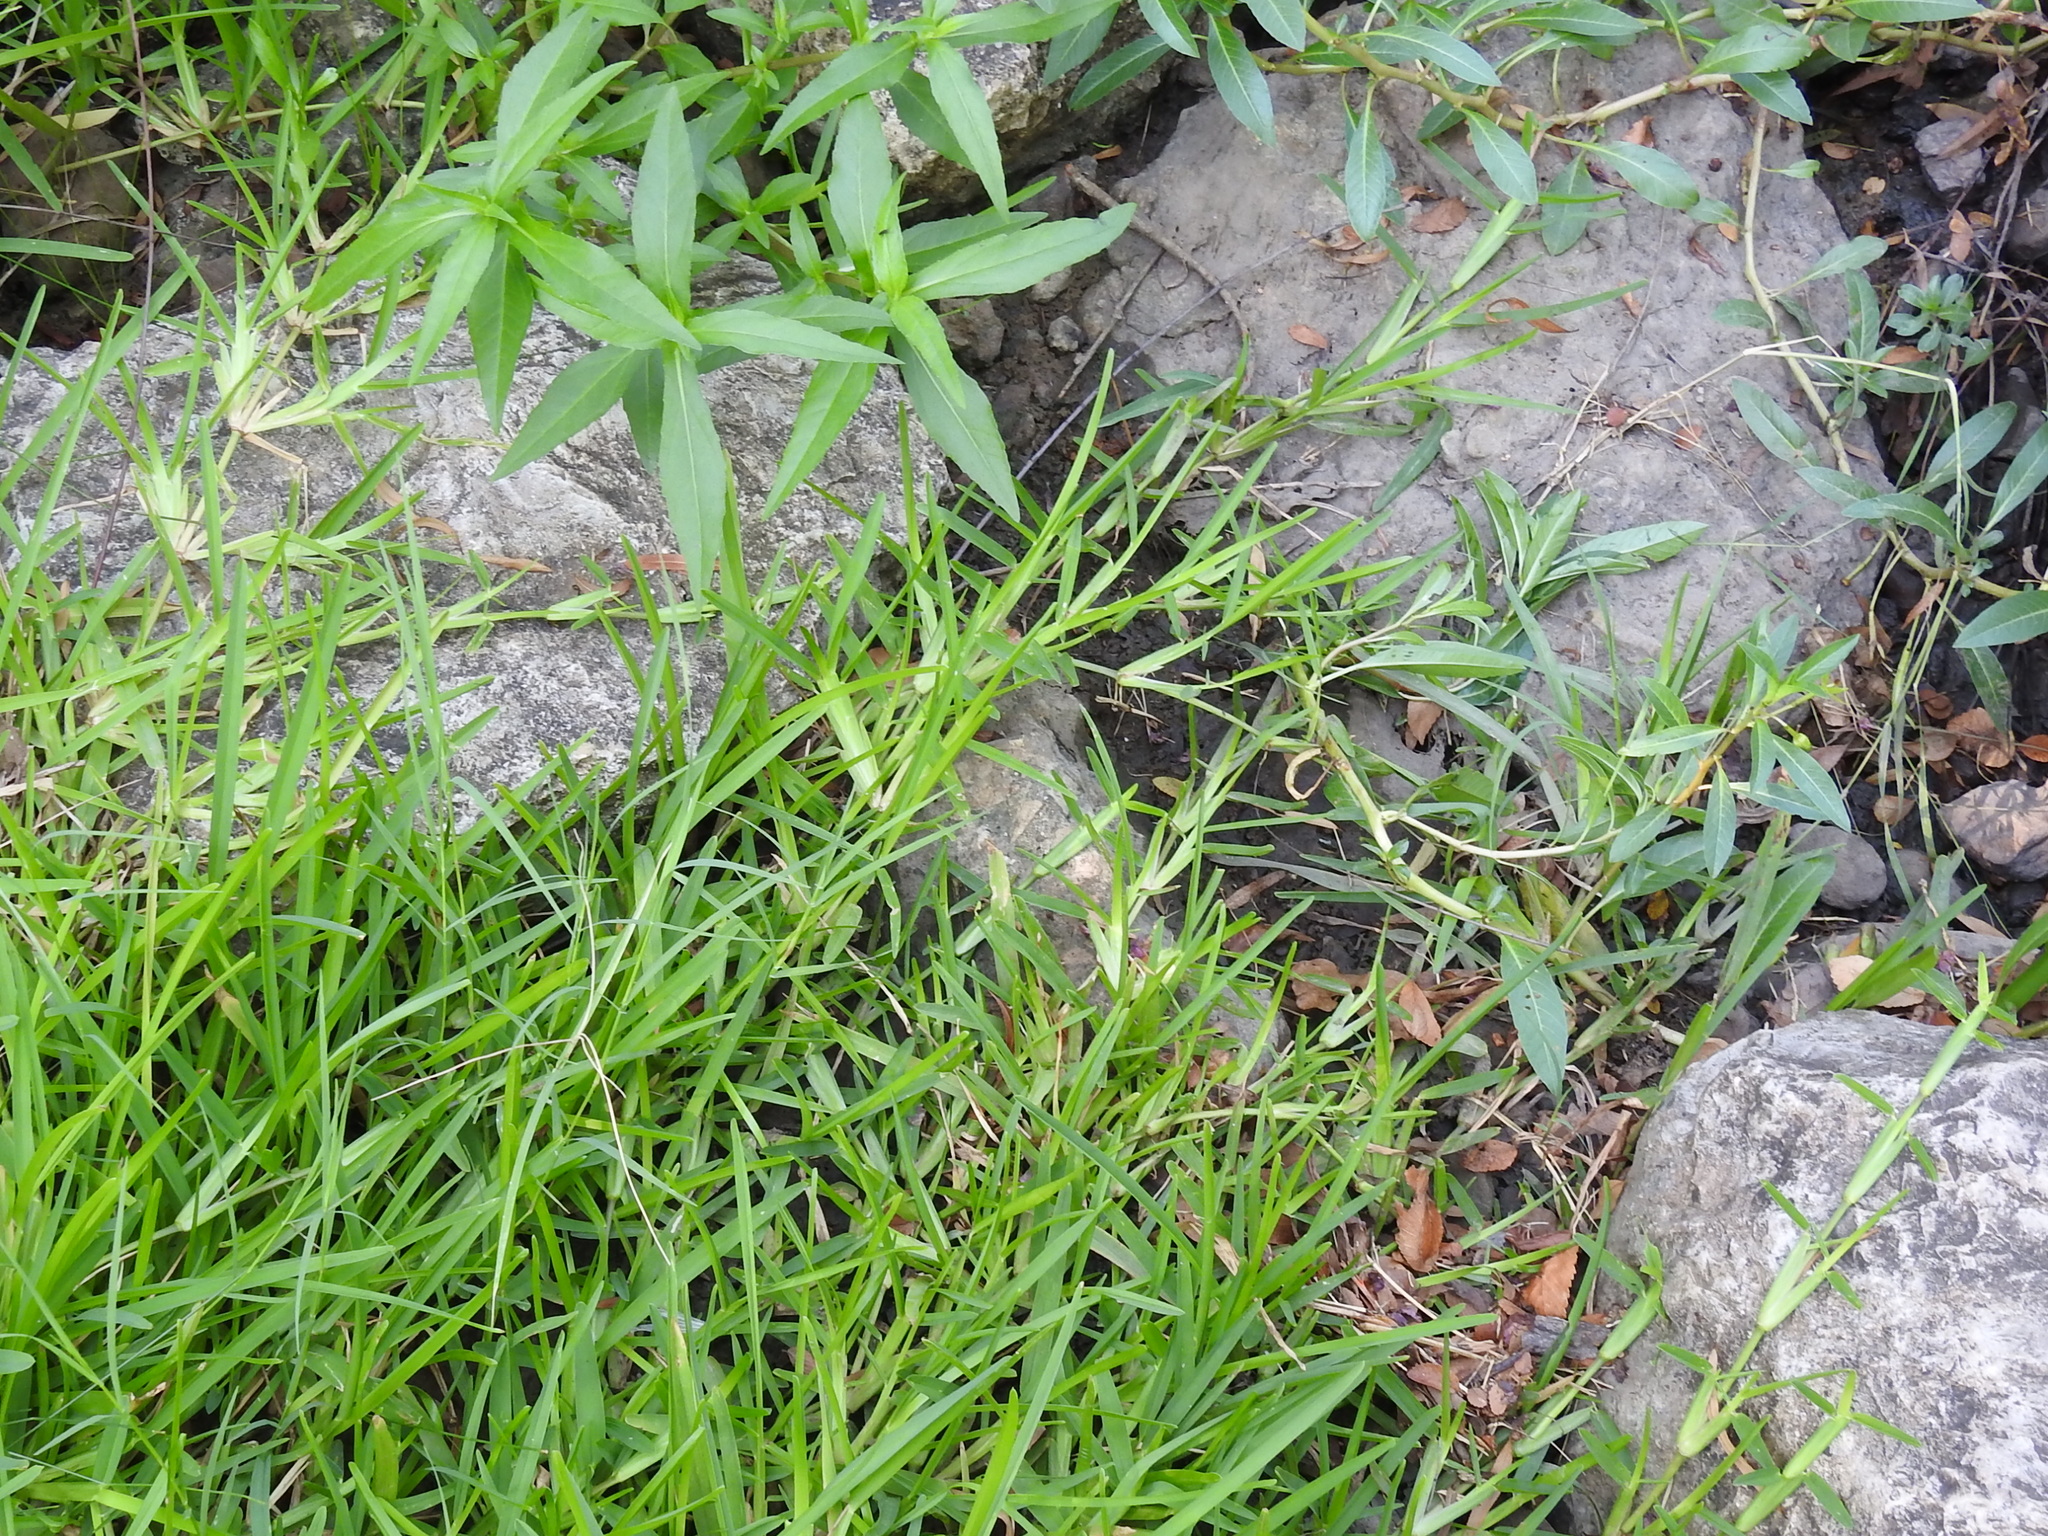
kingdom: Plantae
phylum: Tracheophyta
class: Liliopsida
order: Poales
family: Poaceae
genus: Stenotaphrum
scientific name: Stenotaphrum secundatum
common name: St. augustine grass
